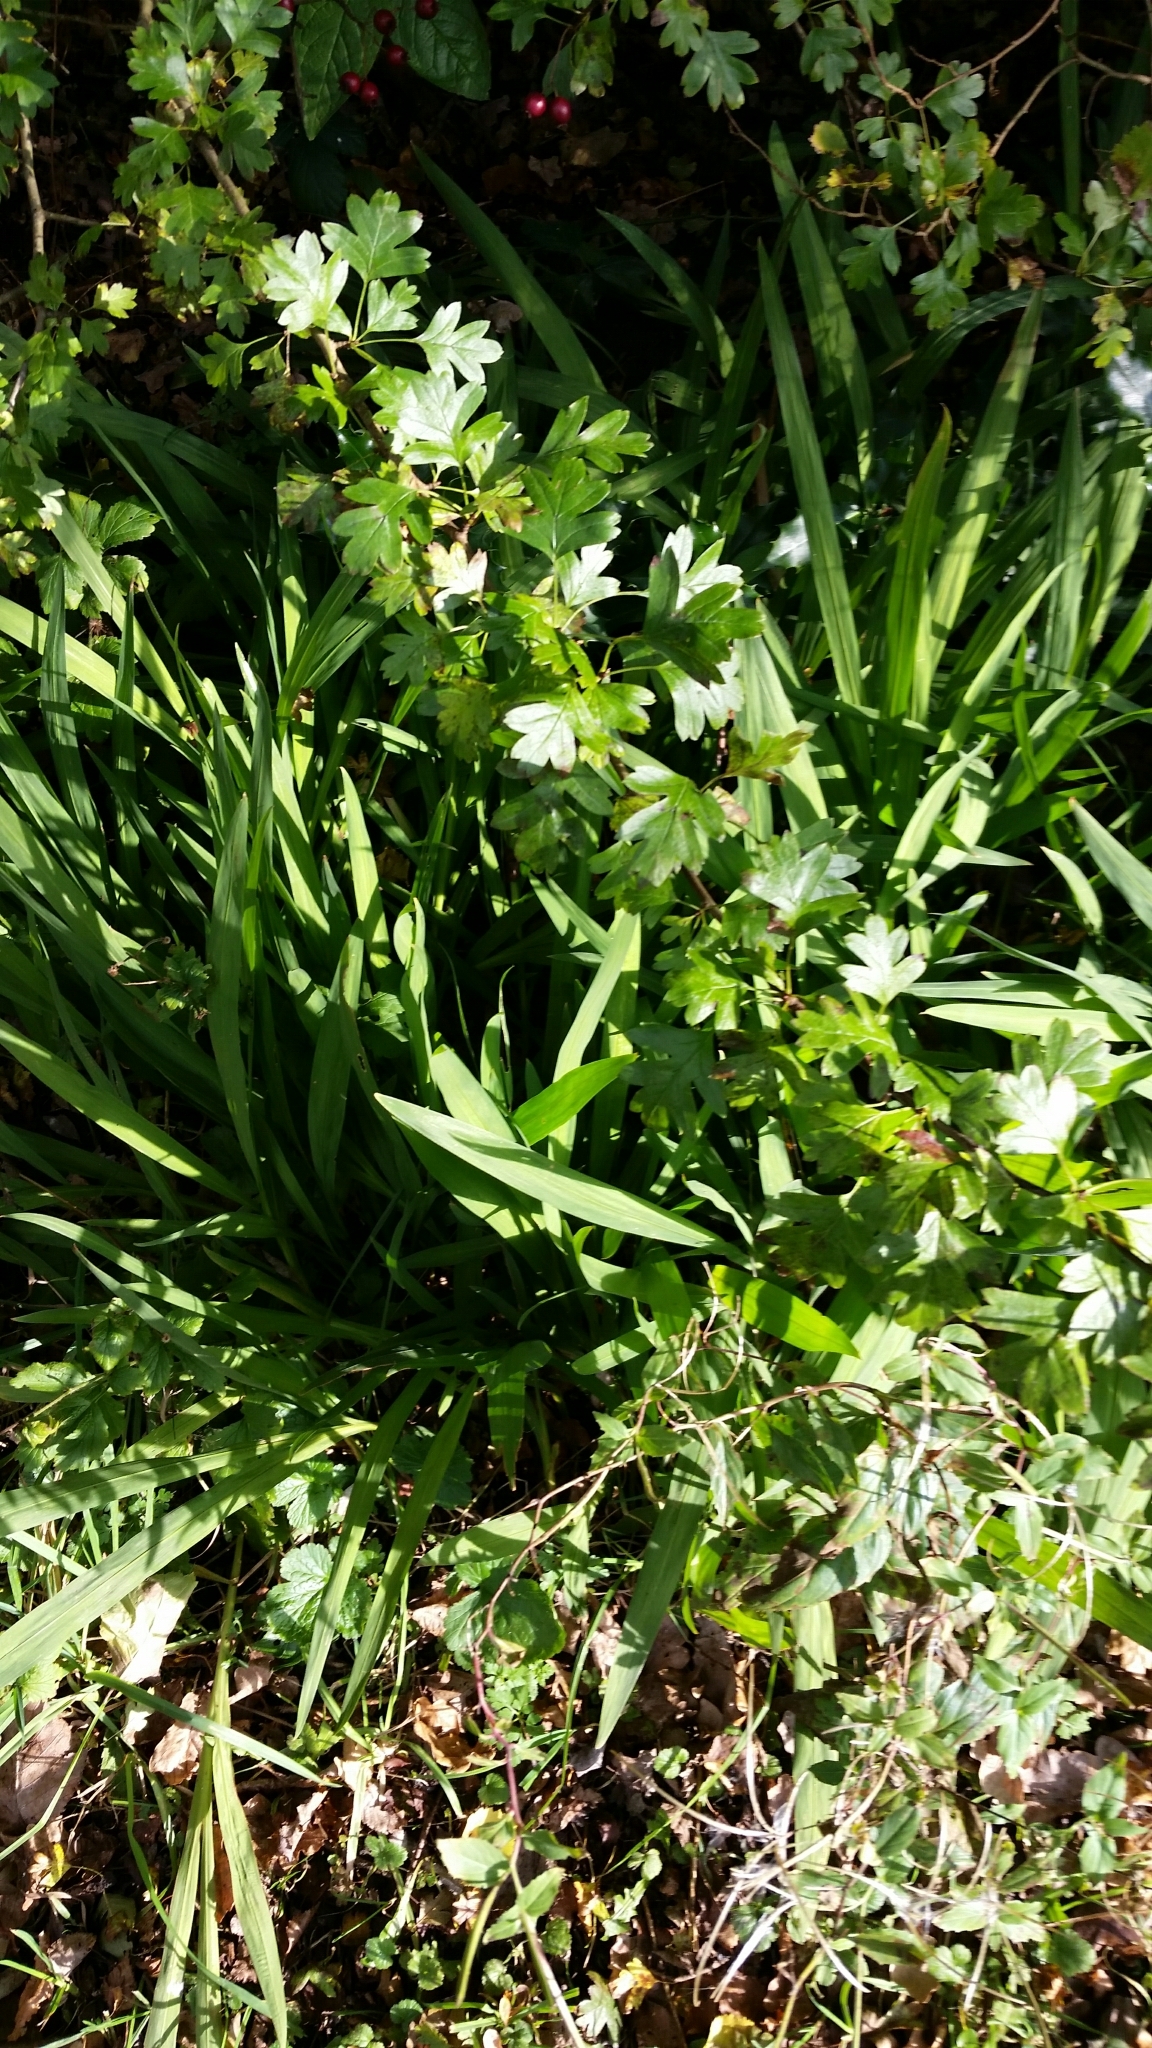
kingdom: Plantae
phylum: Tracheophyta
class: Magnoliopsida
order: Rosales
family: Rosaceae
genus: Crataegus
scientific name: Crataegus monogyna
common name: Hawthorn
